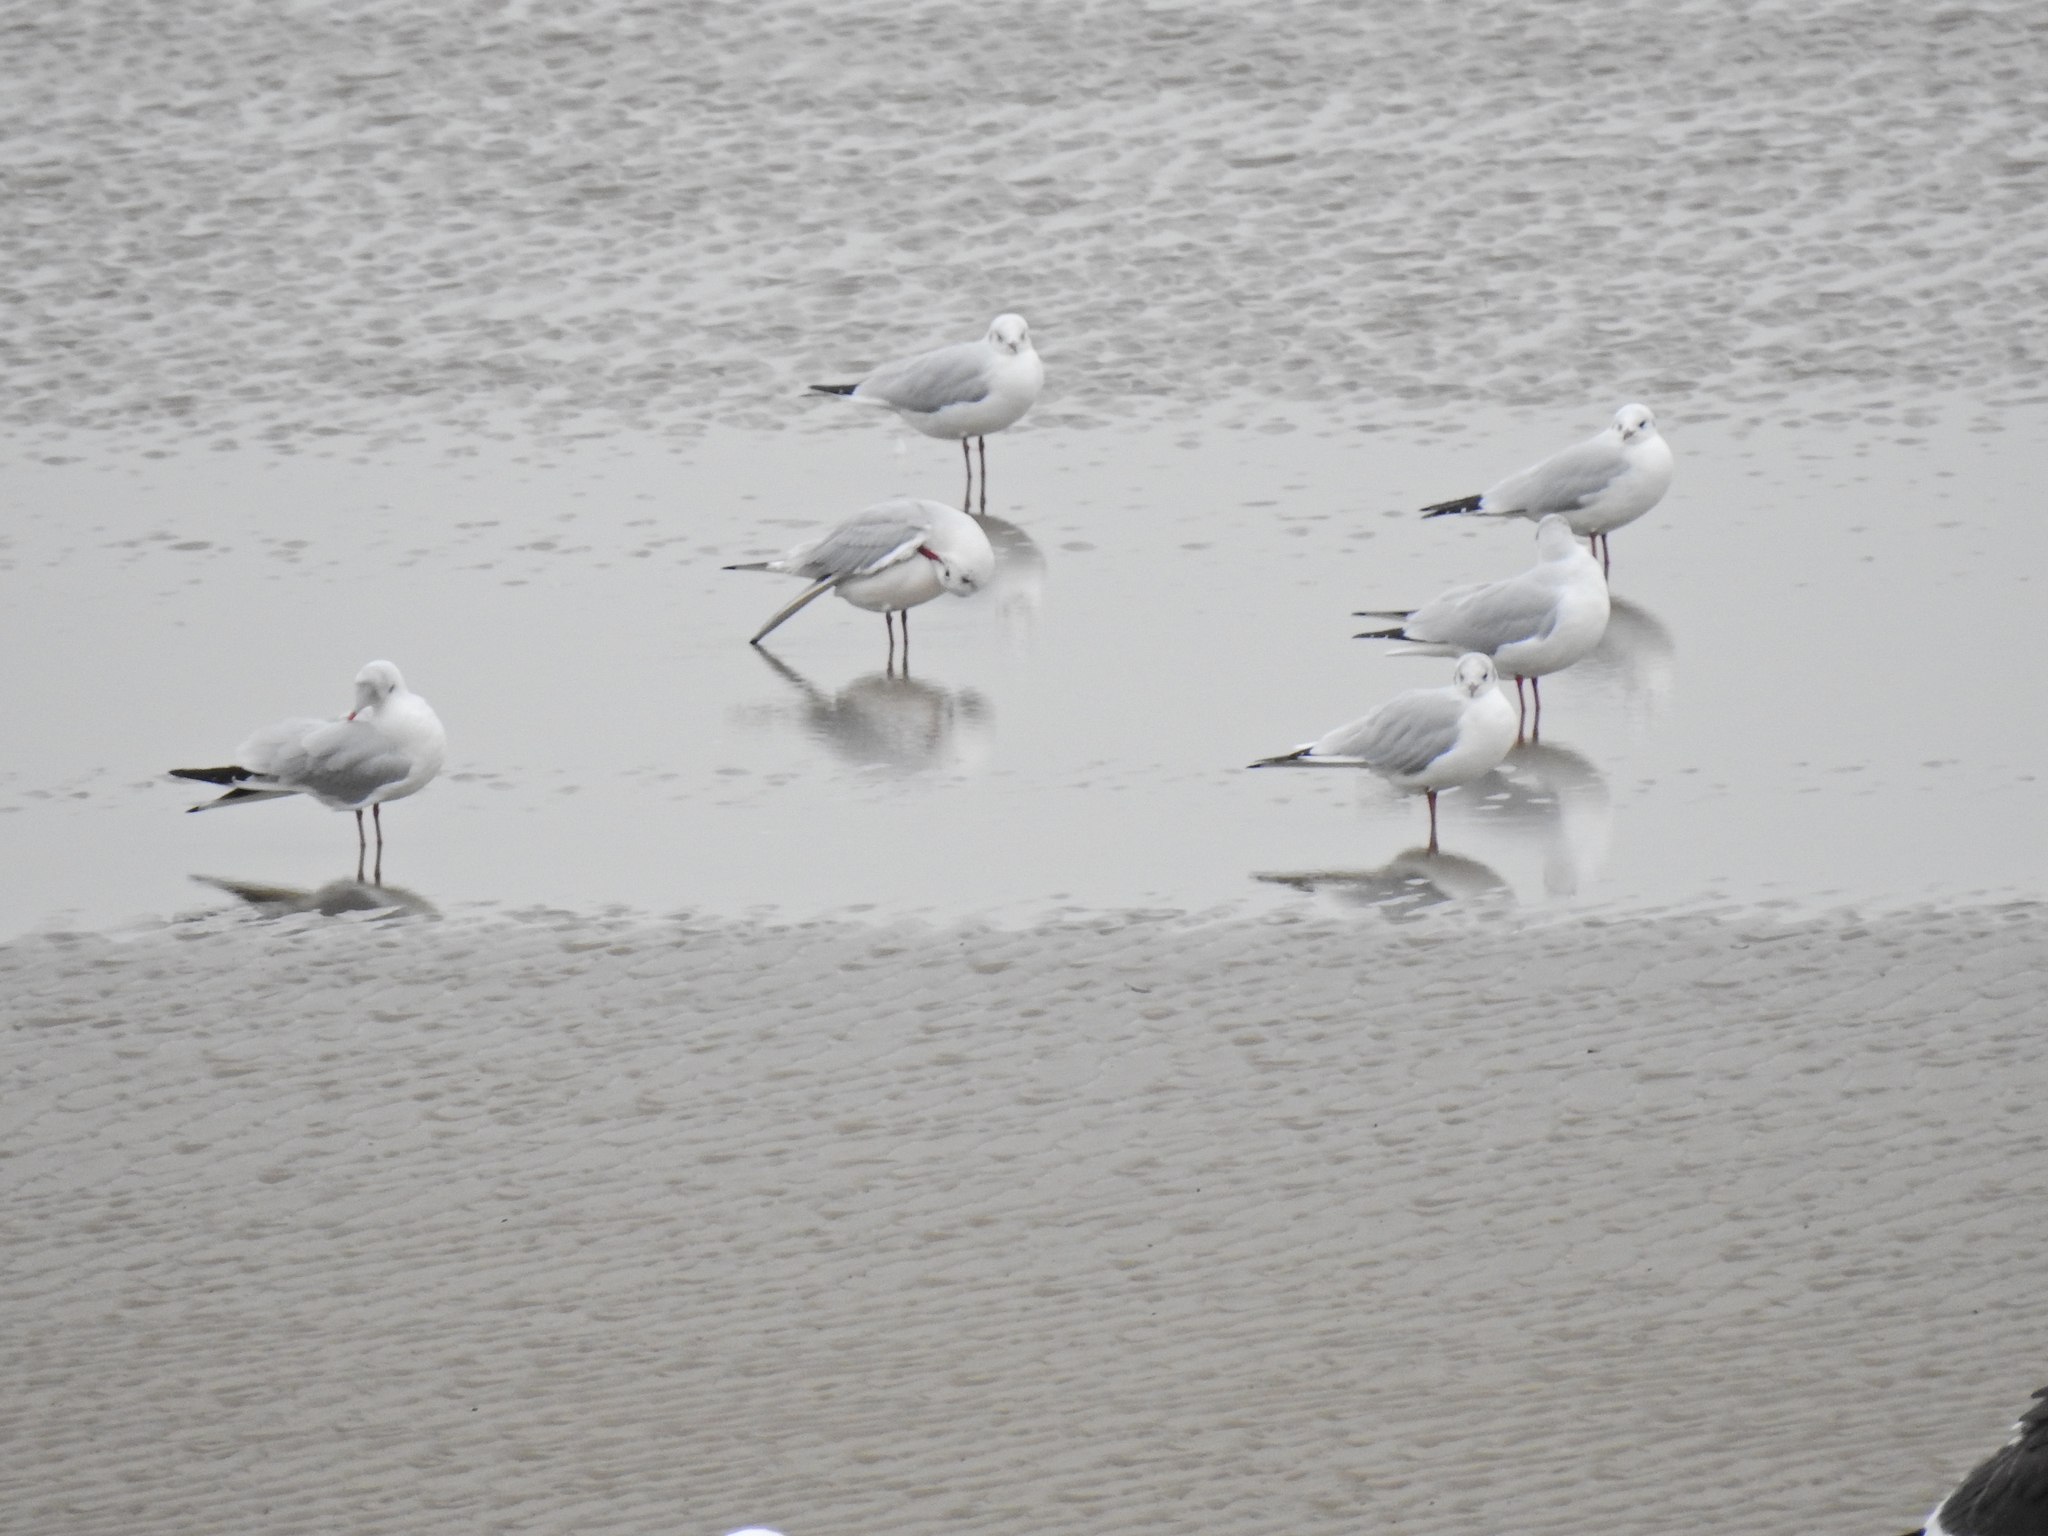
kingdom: Animalia
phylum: Chordata
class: Aves
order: Charadriiformes
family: Laridae
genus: Chroicocephalus
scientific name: Chroicocephalus ridibundus
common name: Black-headed gull
